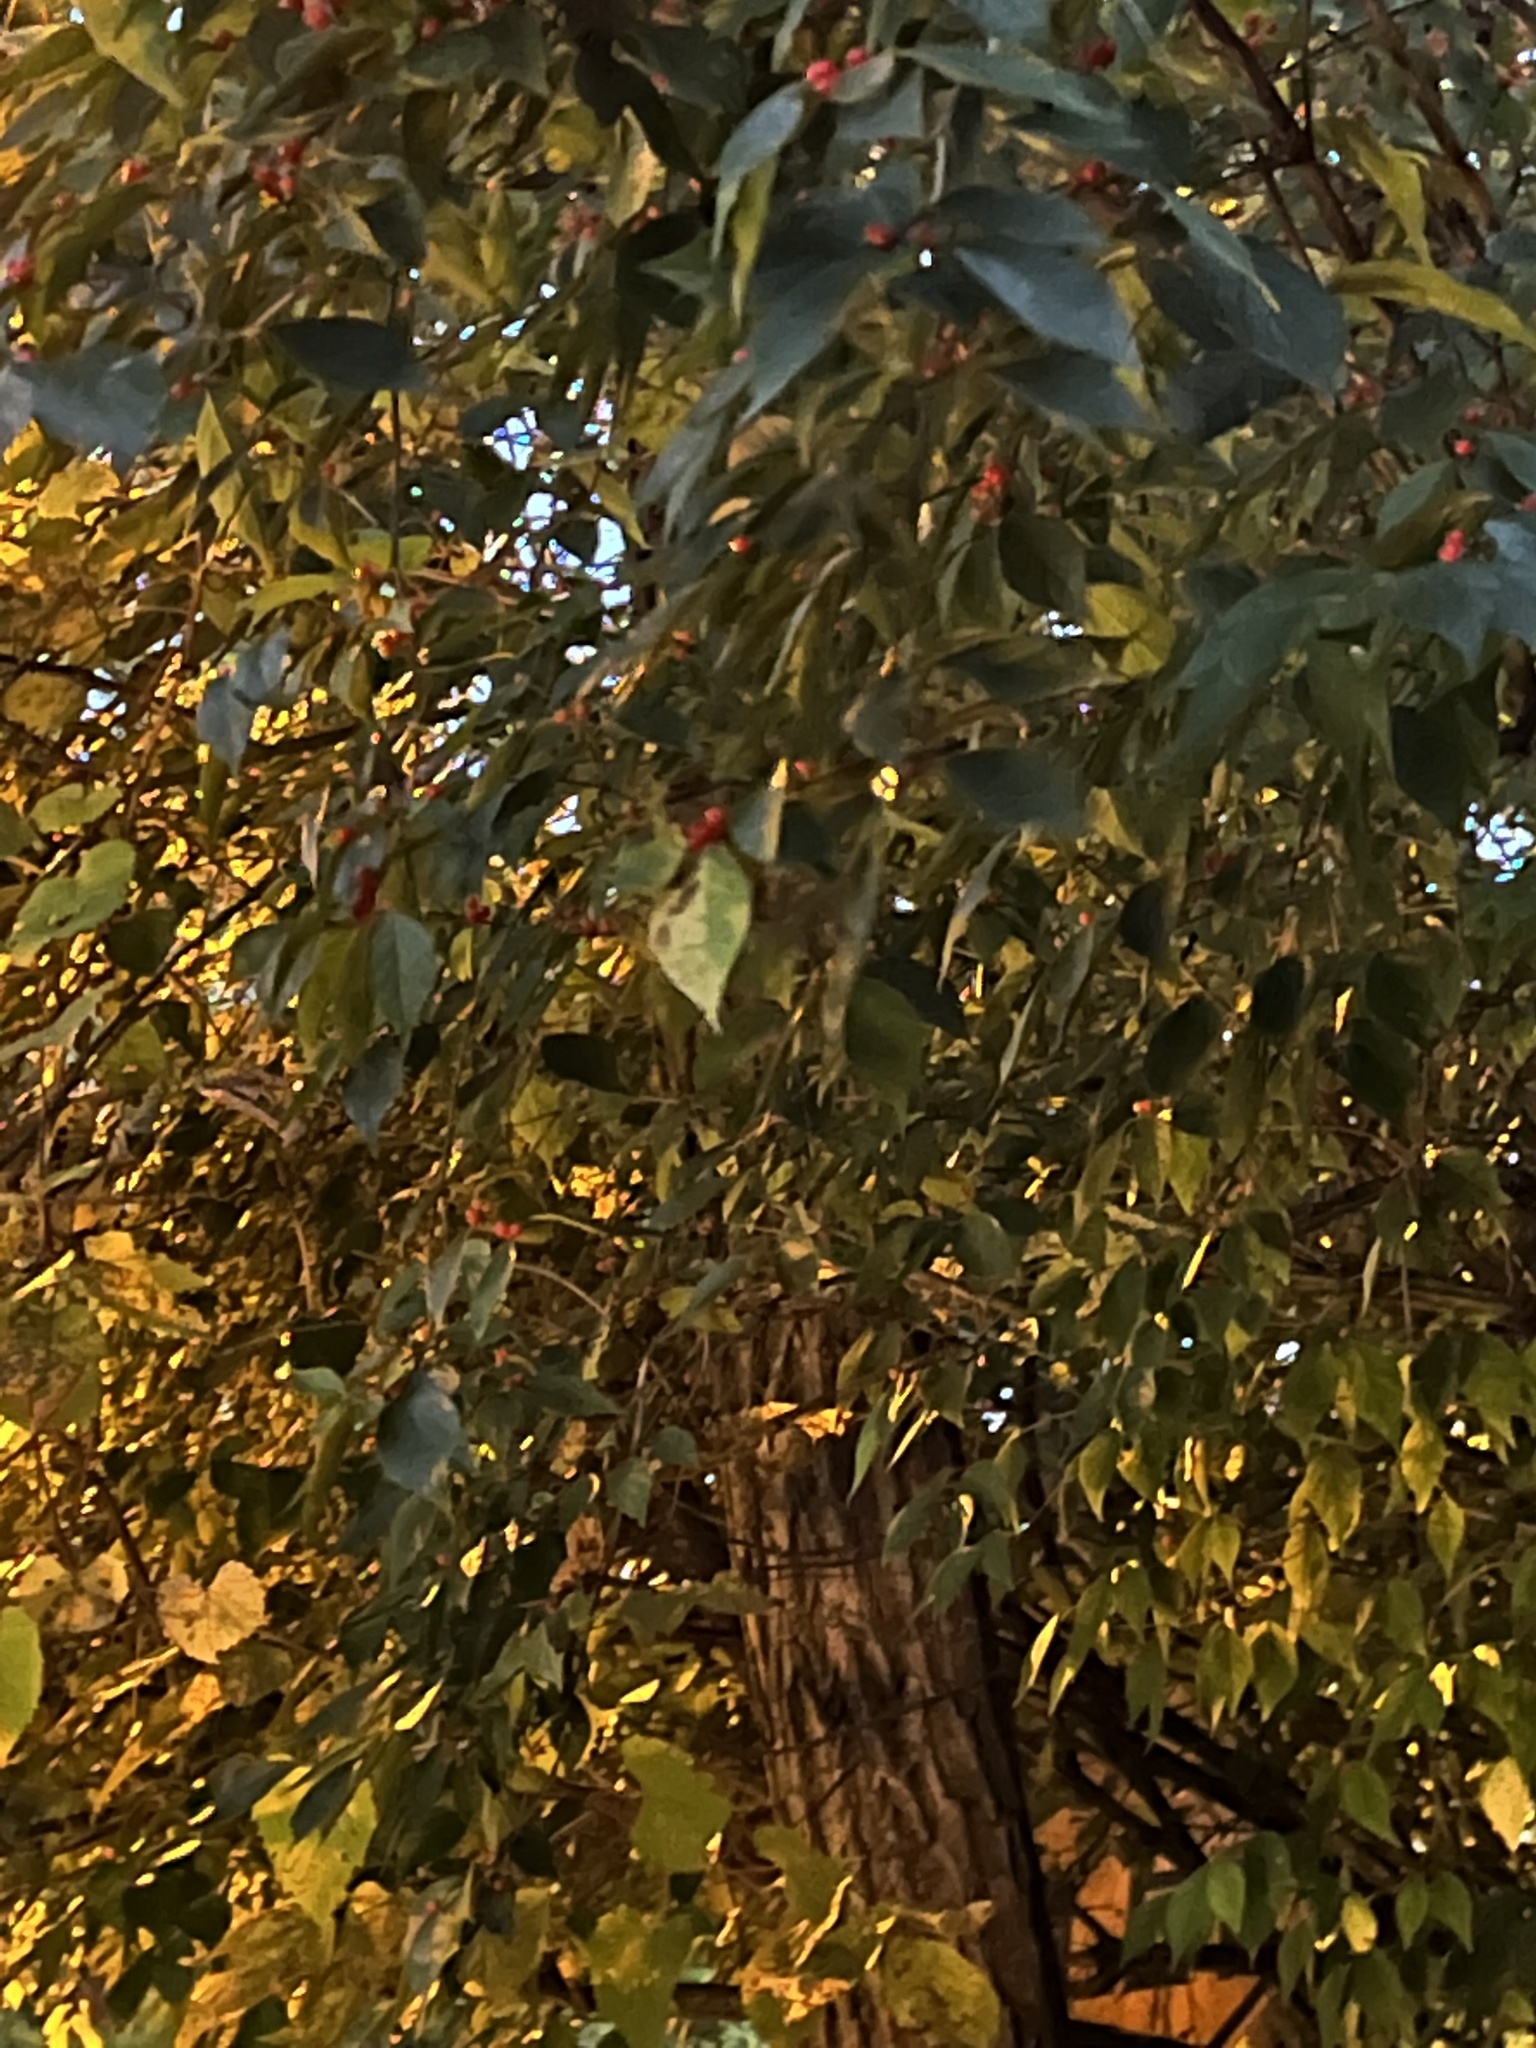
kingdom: Plantae
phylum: Tracheophyta
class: Magnoliopsida
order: Dipsacales
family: Caprifoliaceae
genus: Lonicera
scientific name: Lonicera maackii
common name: Amur honeysuckle
